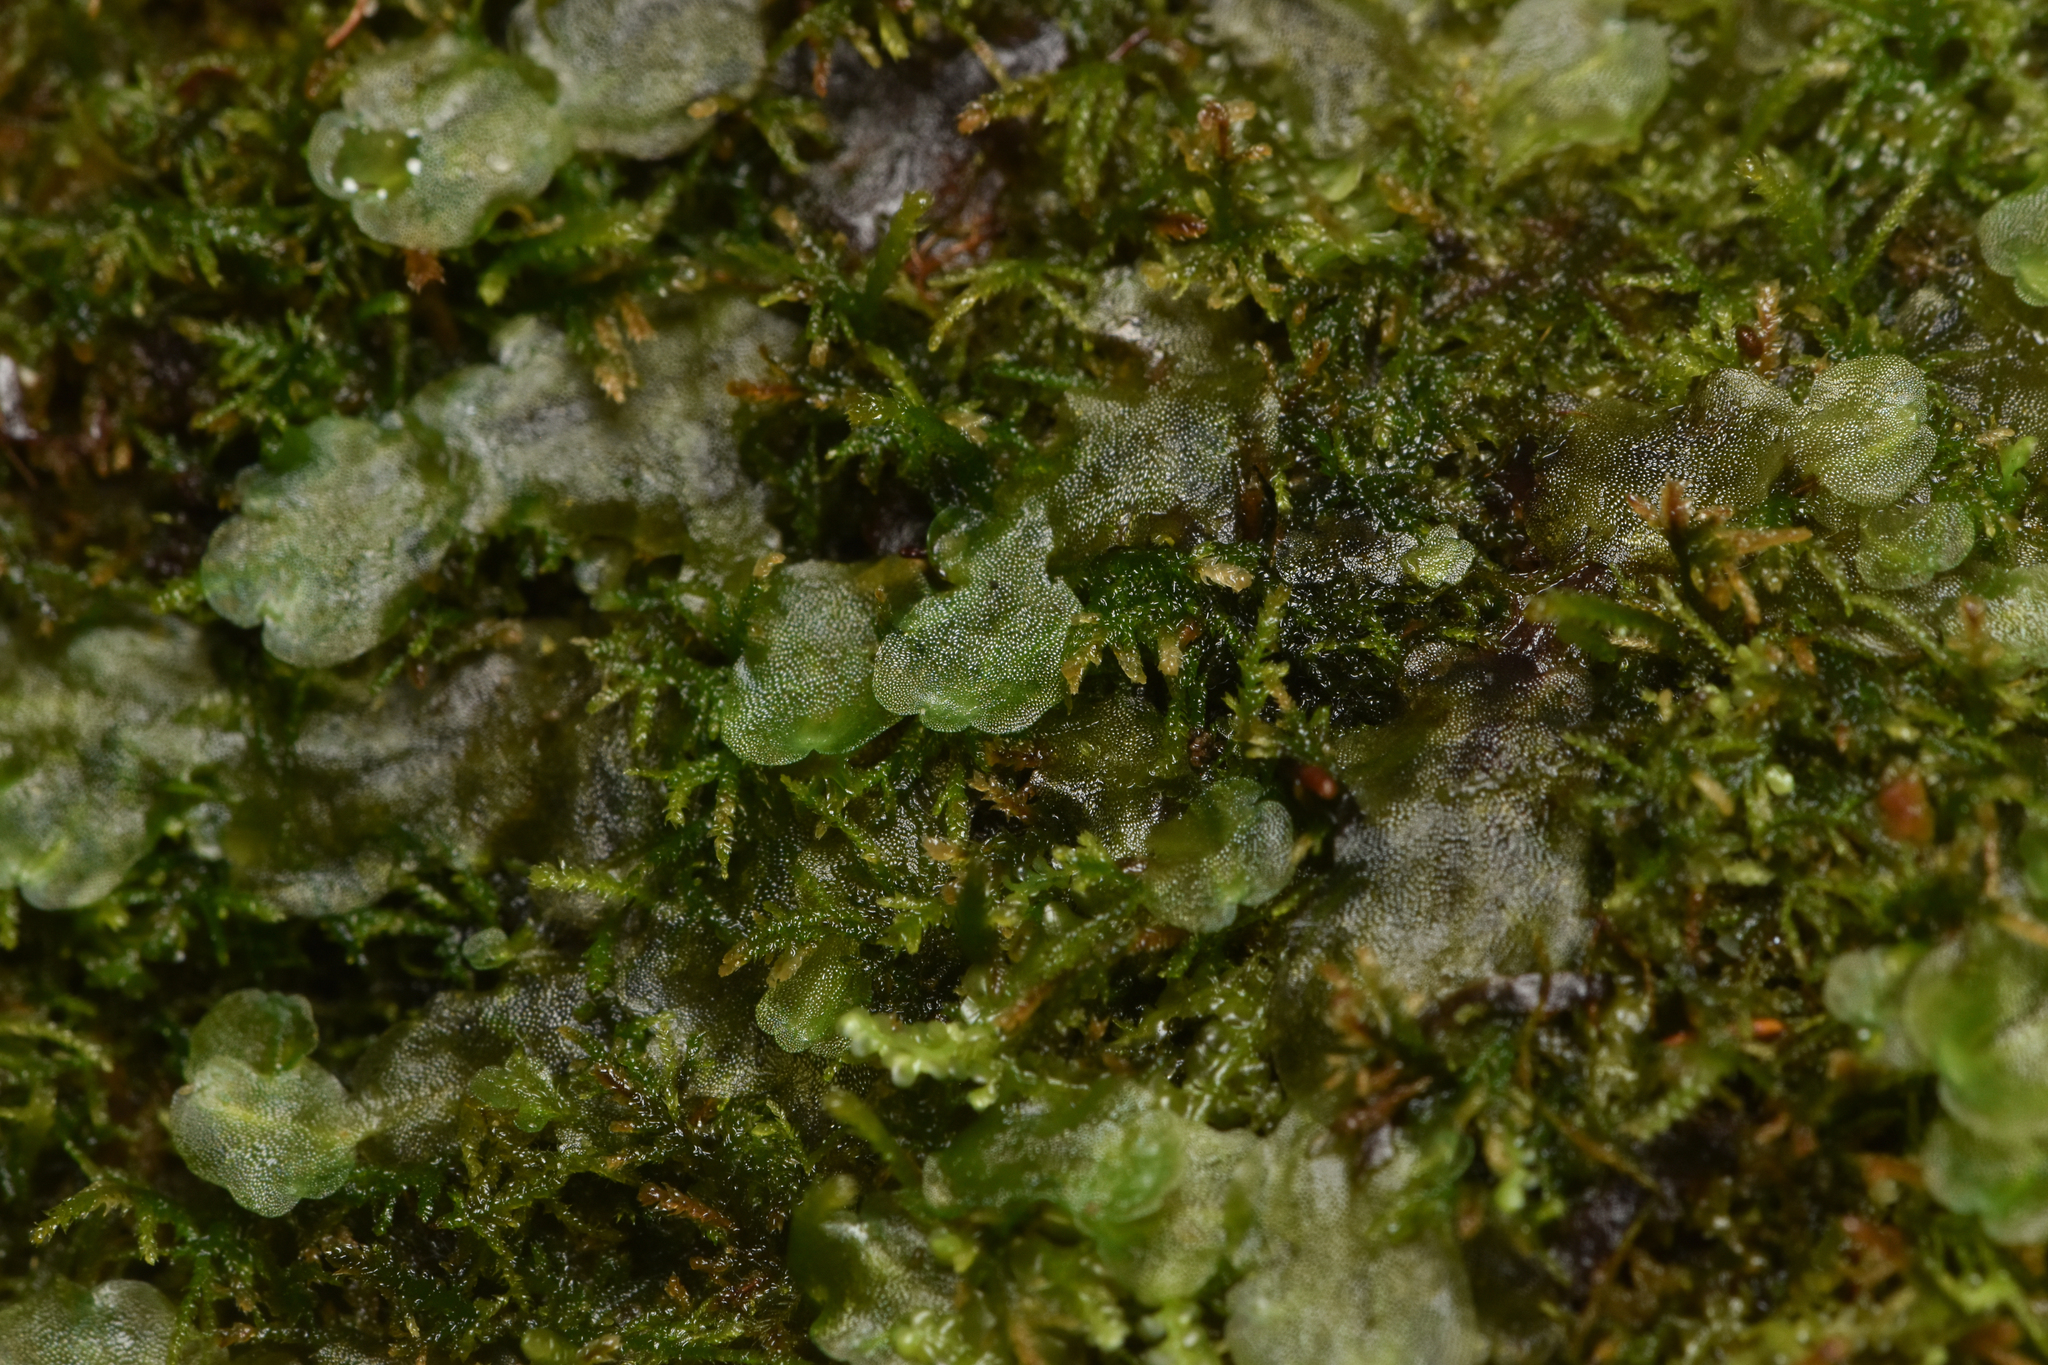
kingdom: Plantae
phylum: Marchantiophyta
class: Jungermanniopsida
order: Pelliales
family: Pelliaceae
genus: Pellia
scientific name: Pellia neesiana
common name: Nees  pellia
